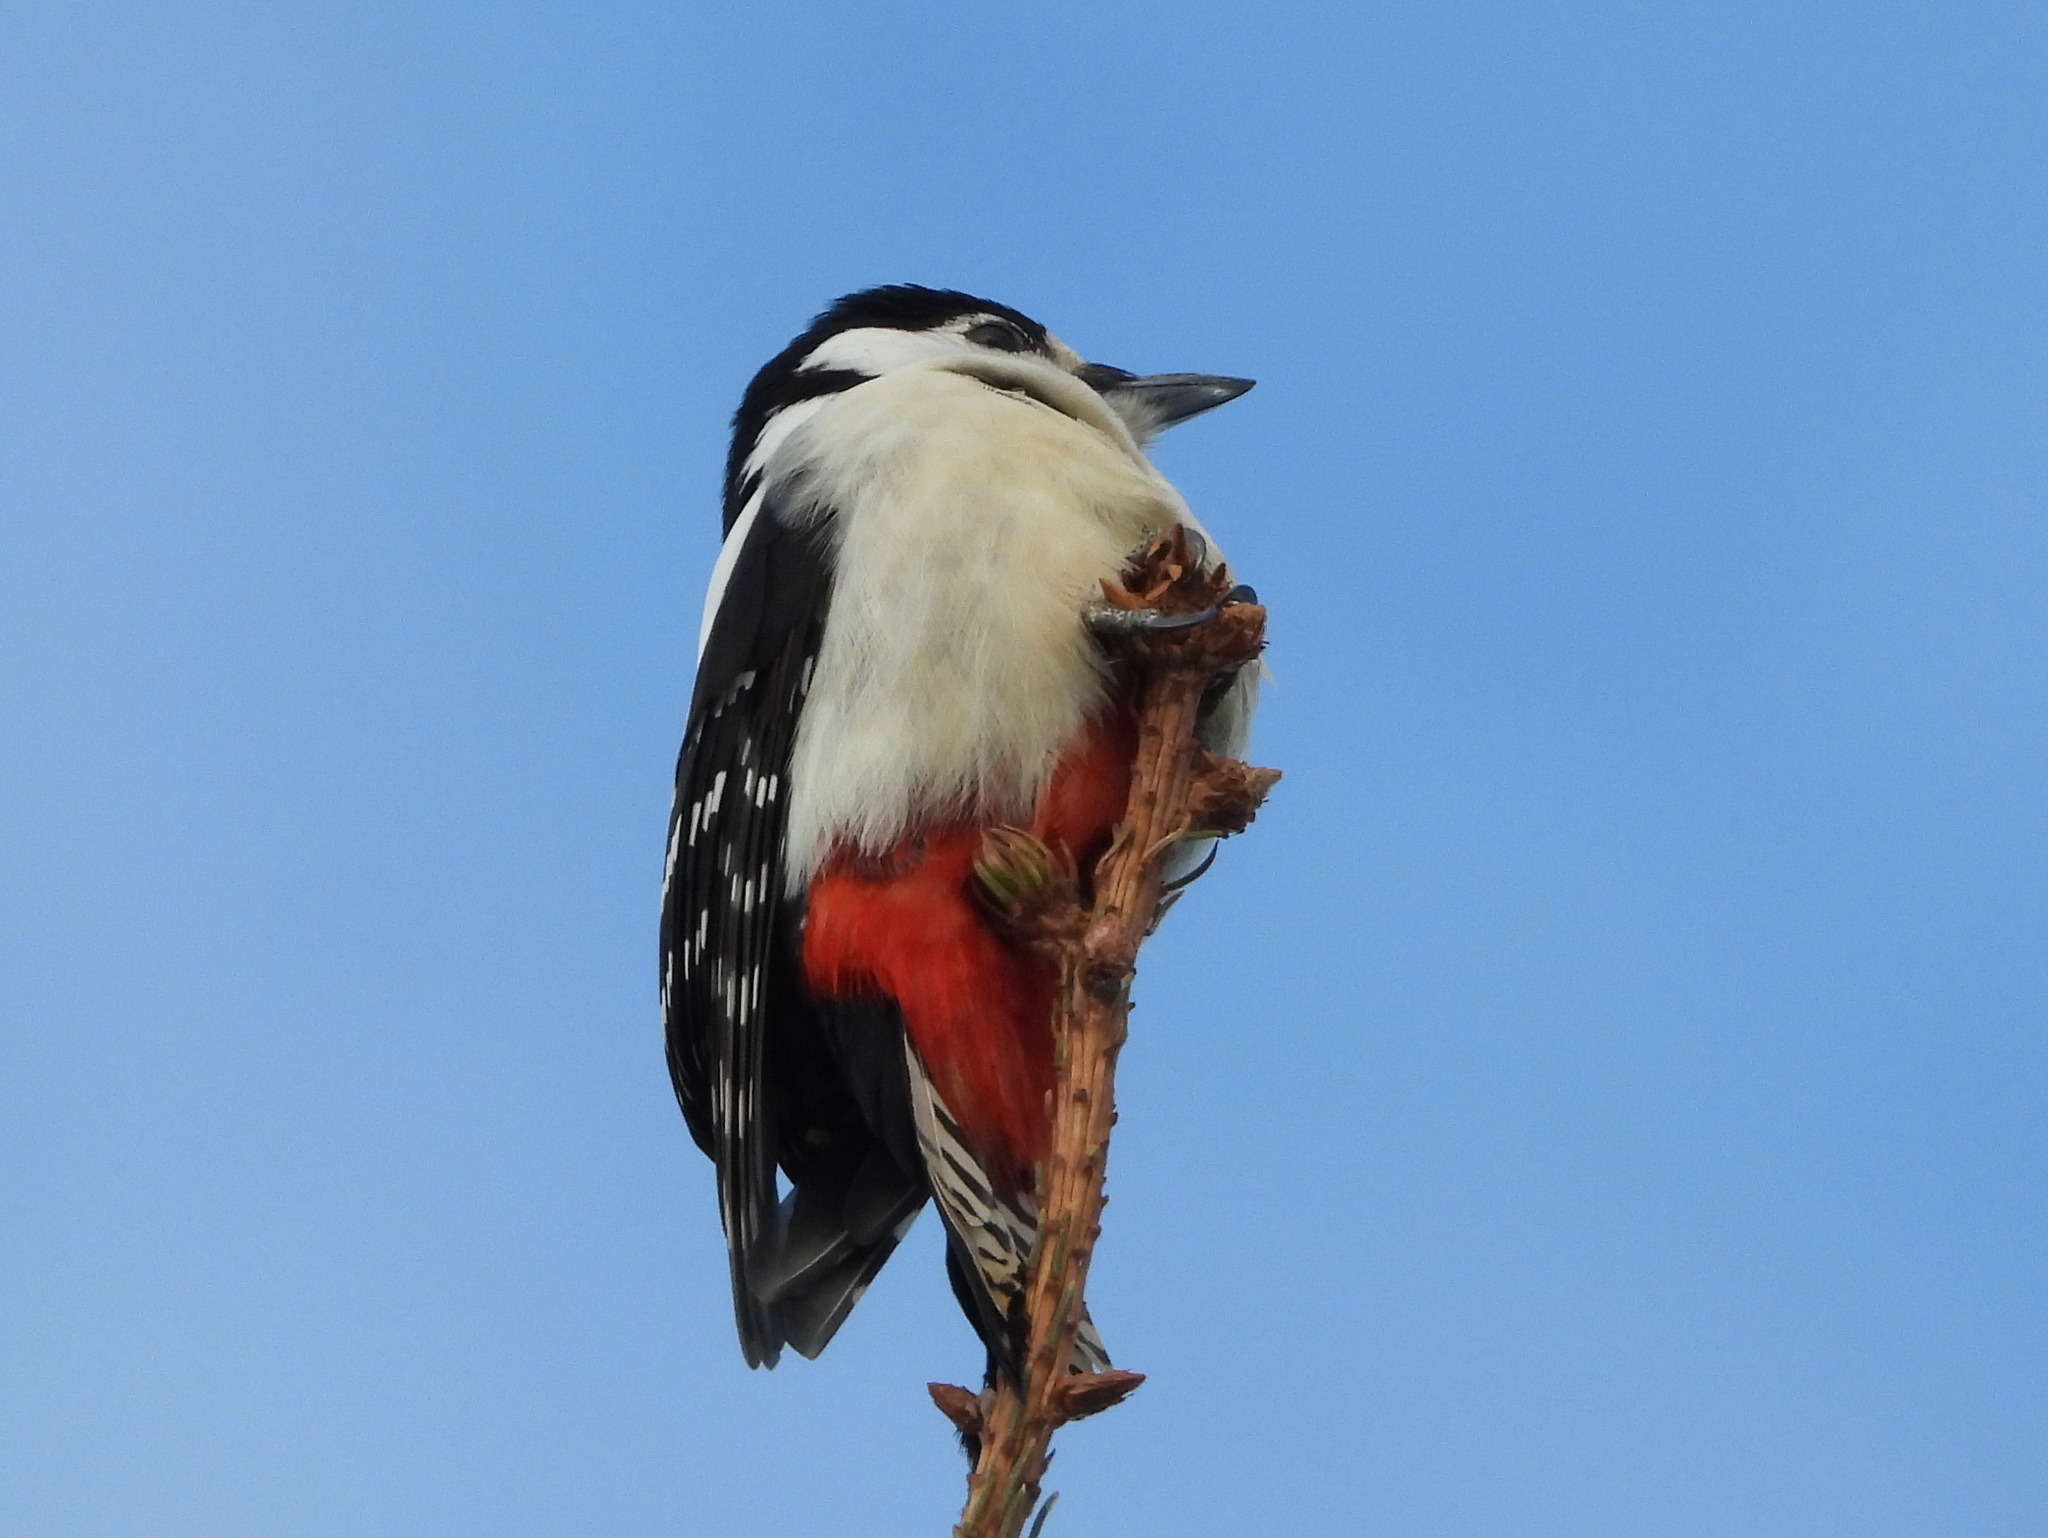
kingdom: Animalia
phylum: Chordata
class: Aves
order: Piciformes
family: Picidae
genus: Dendrocopos
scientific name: Dendrocopos major
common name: Great spotted woodpecker
